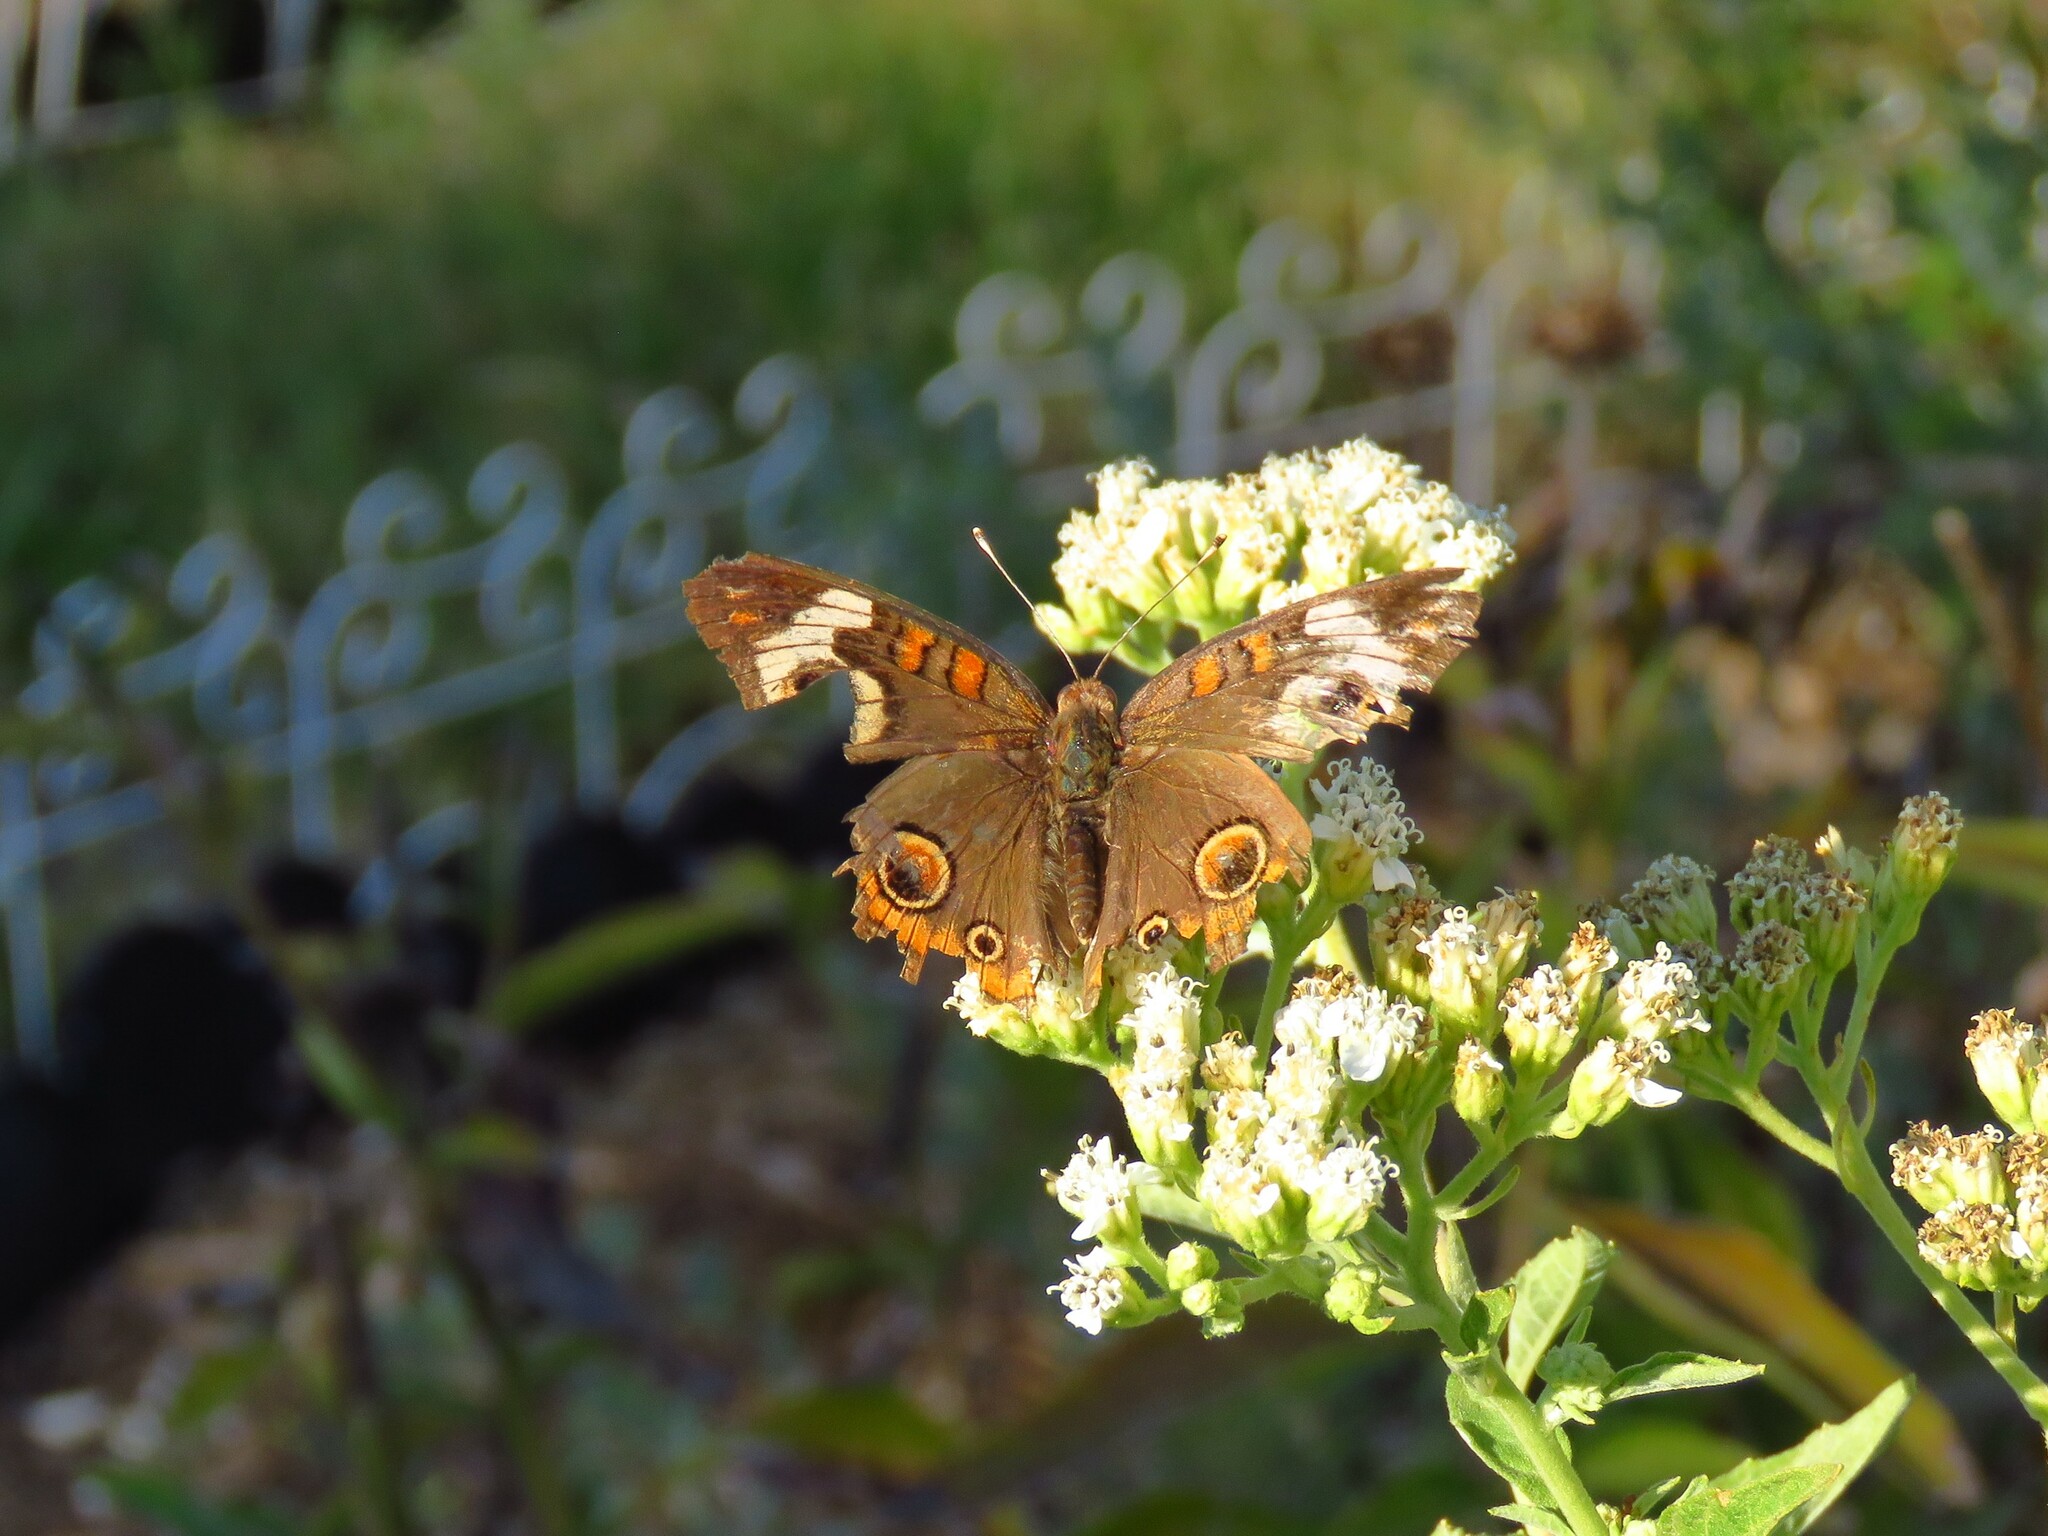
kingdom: Animalia
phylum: Arthropoda
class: Insecta
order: Lepidoptera
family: Nymphalidae
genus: Junonia
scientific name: Junonia coenia
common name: Common buckeye
